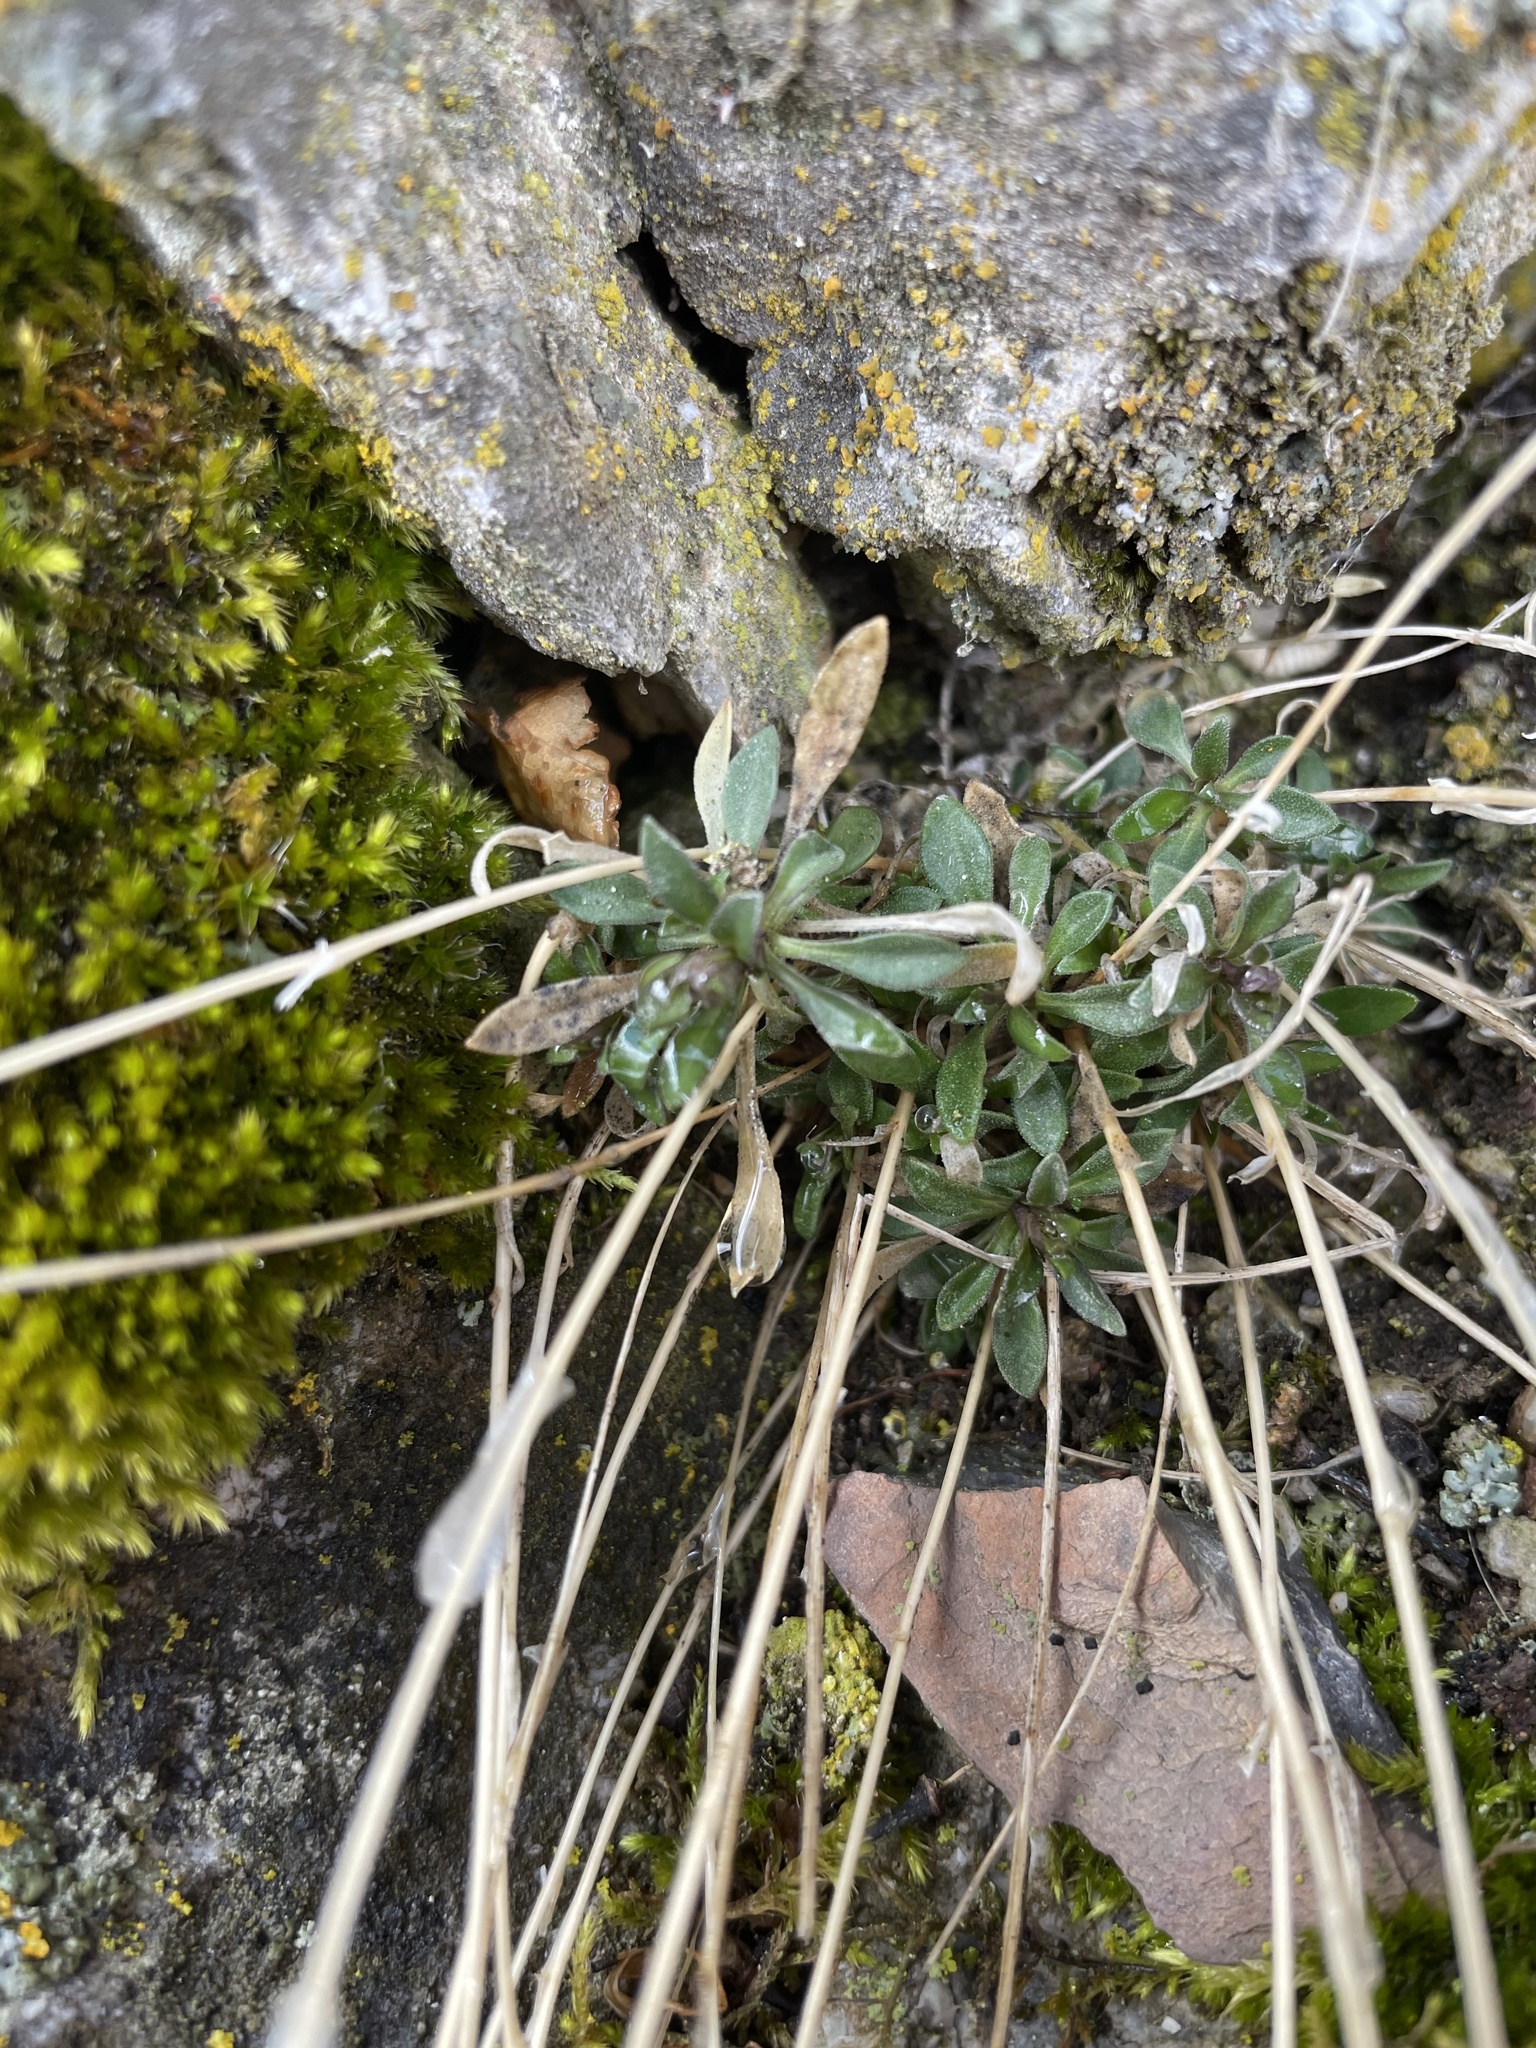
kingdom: Plantae
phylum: Tracheophyta
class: Magnoliopsida
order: Brassicales
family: Brassicaceae
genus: Boechera
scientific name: Boechera microphylla
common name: Crevice suncress
